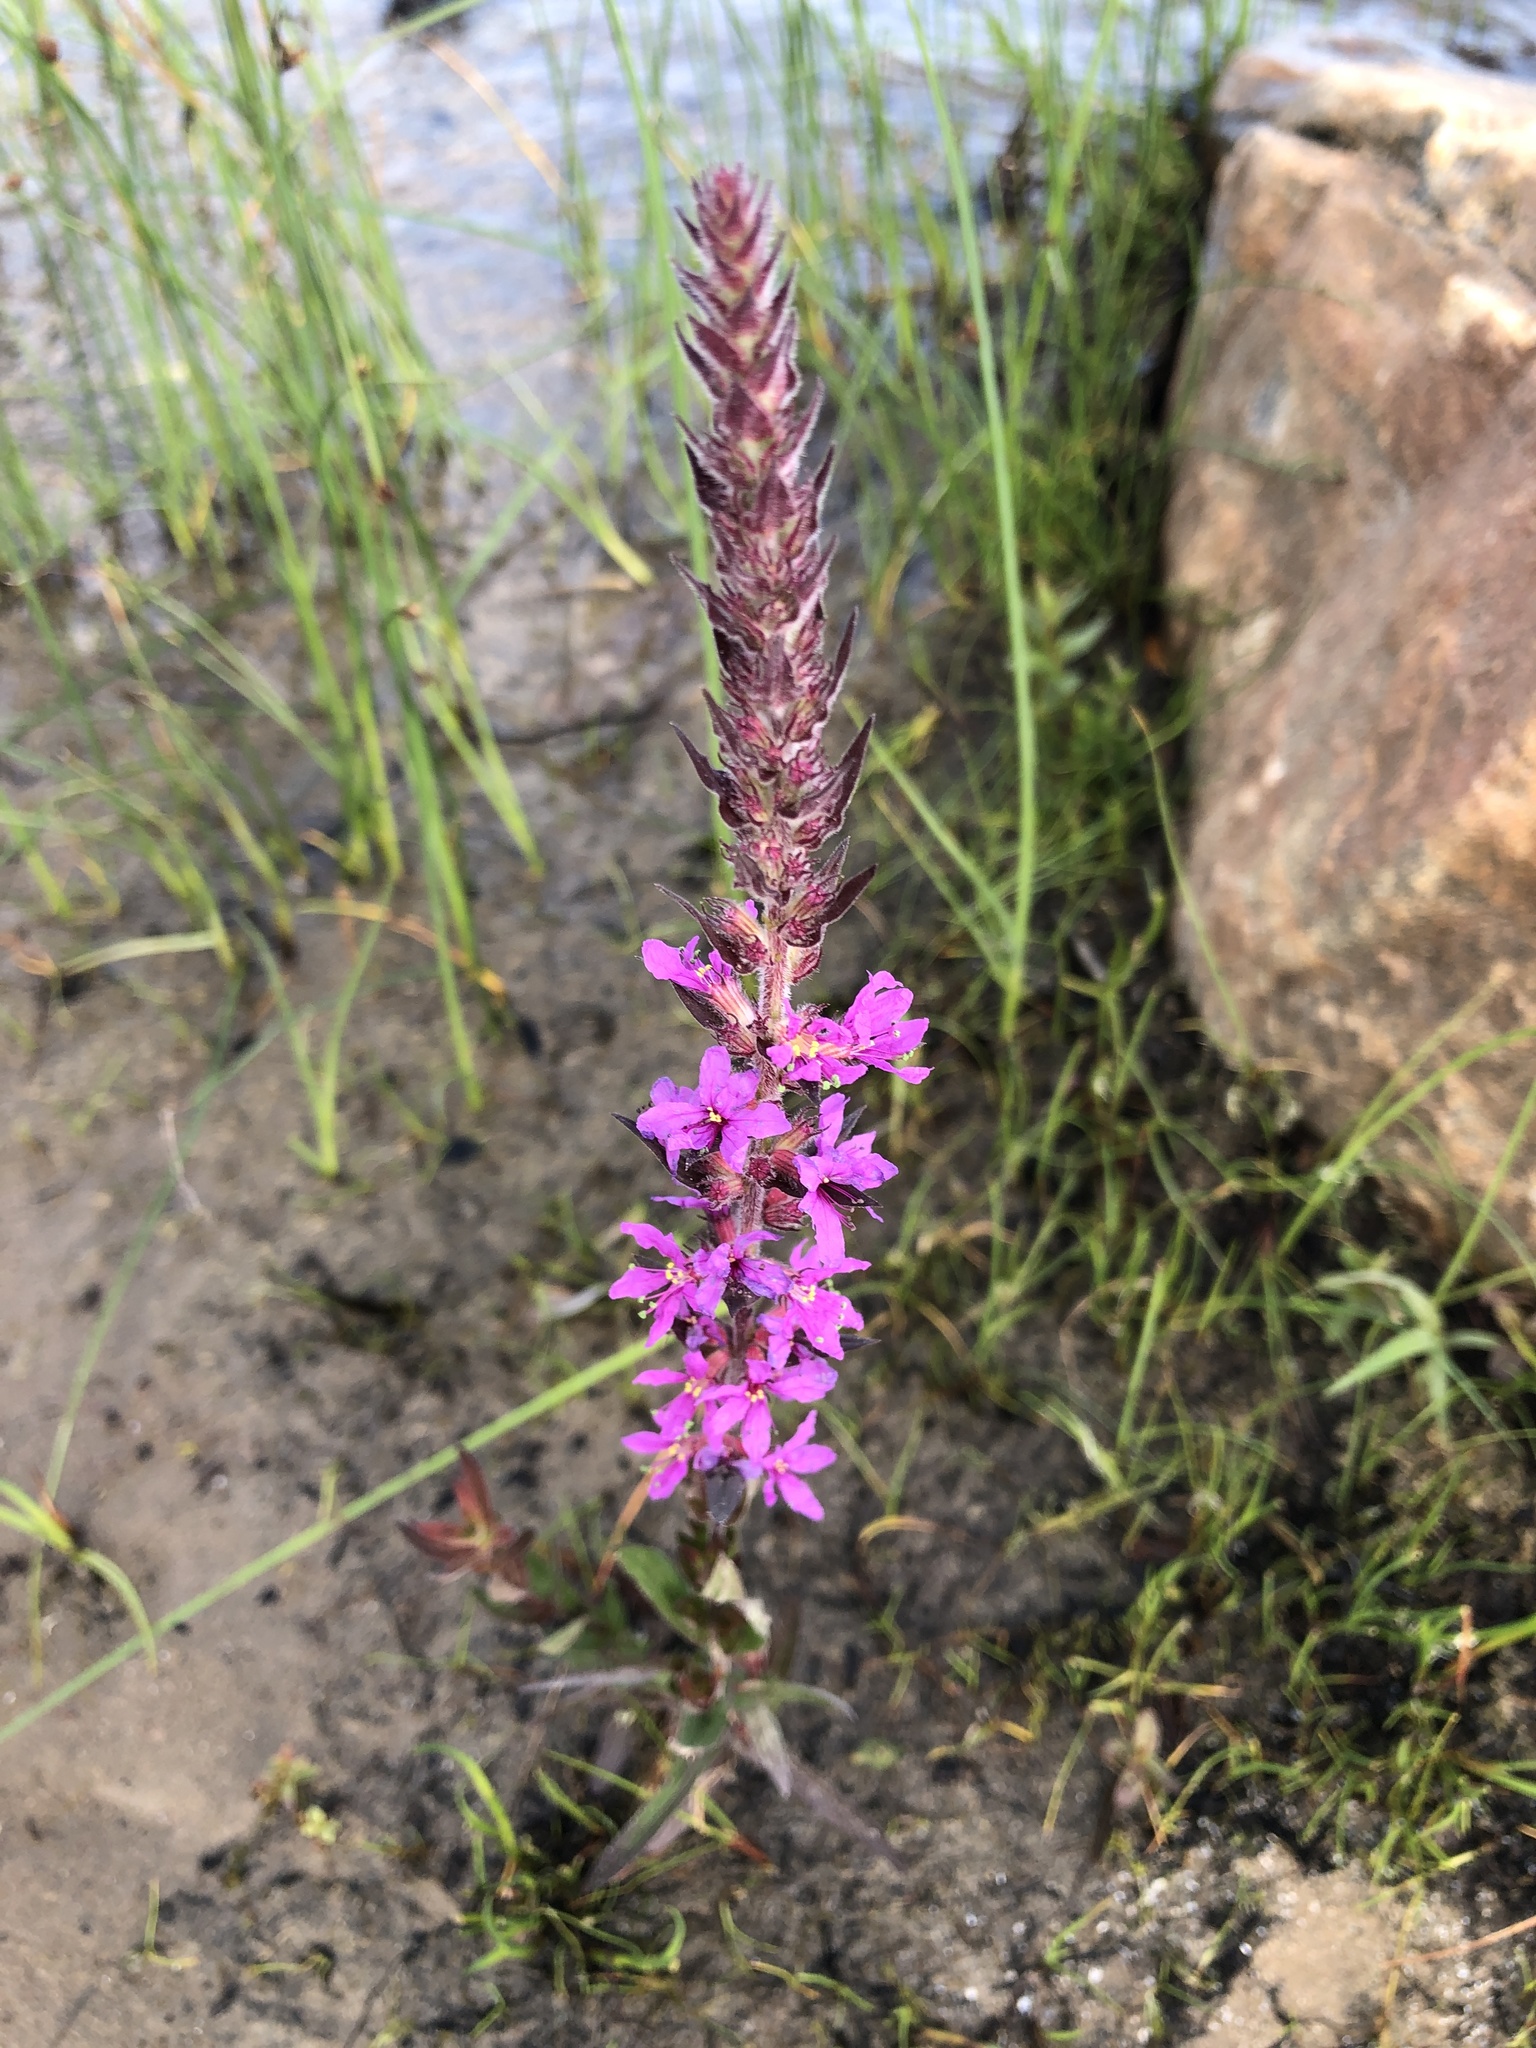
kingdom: Plantae
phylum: Tracheophyta
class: Magnoliopsida
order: Myrtales
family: Lythraceae
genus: Lythrum
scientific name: Lythrum salicaria
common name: Purple loosestrife
